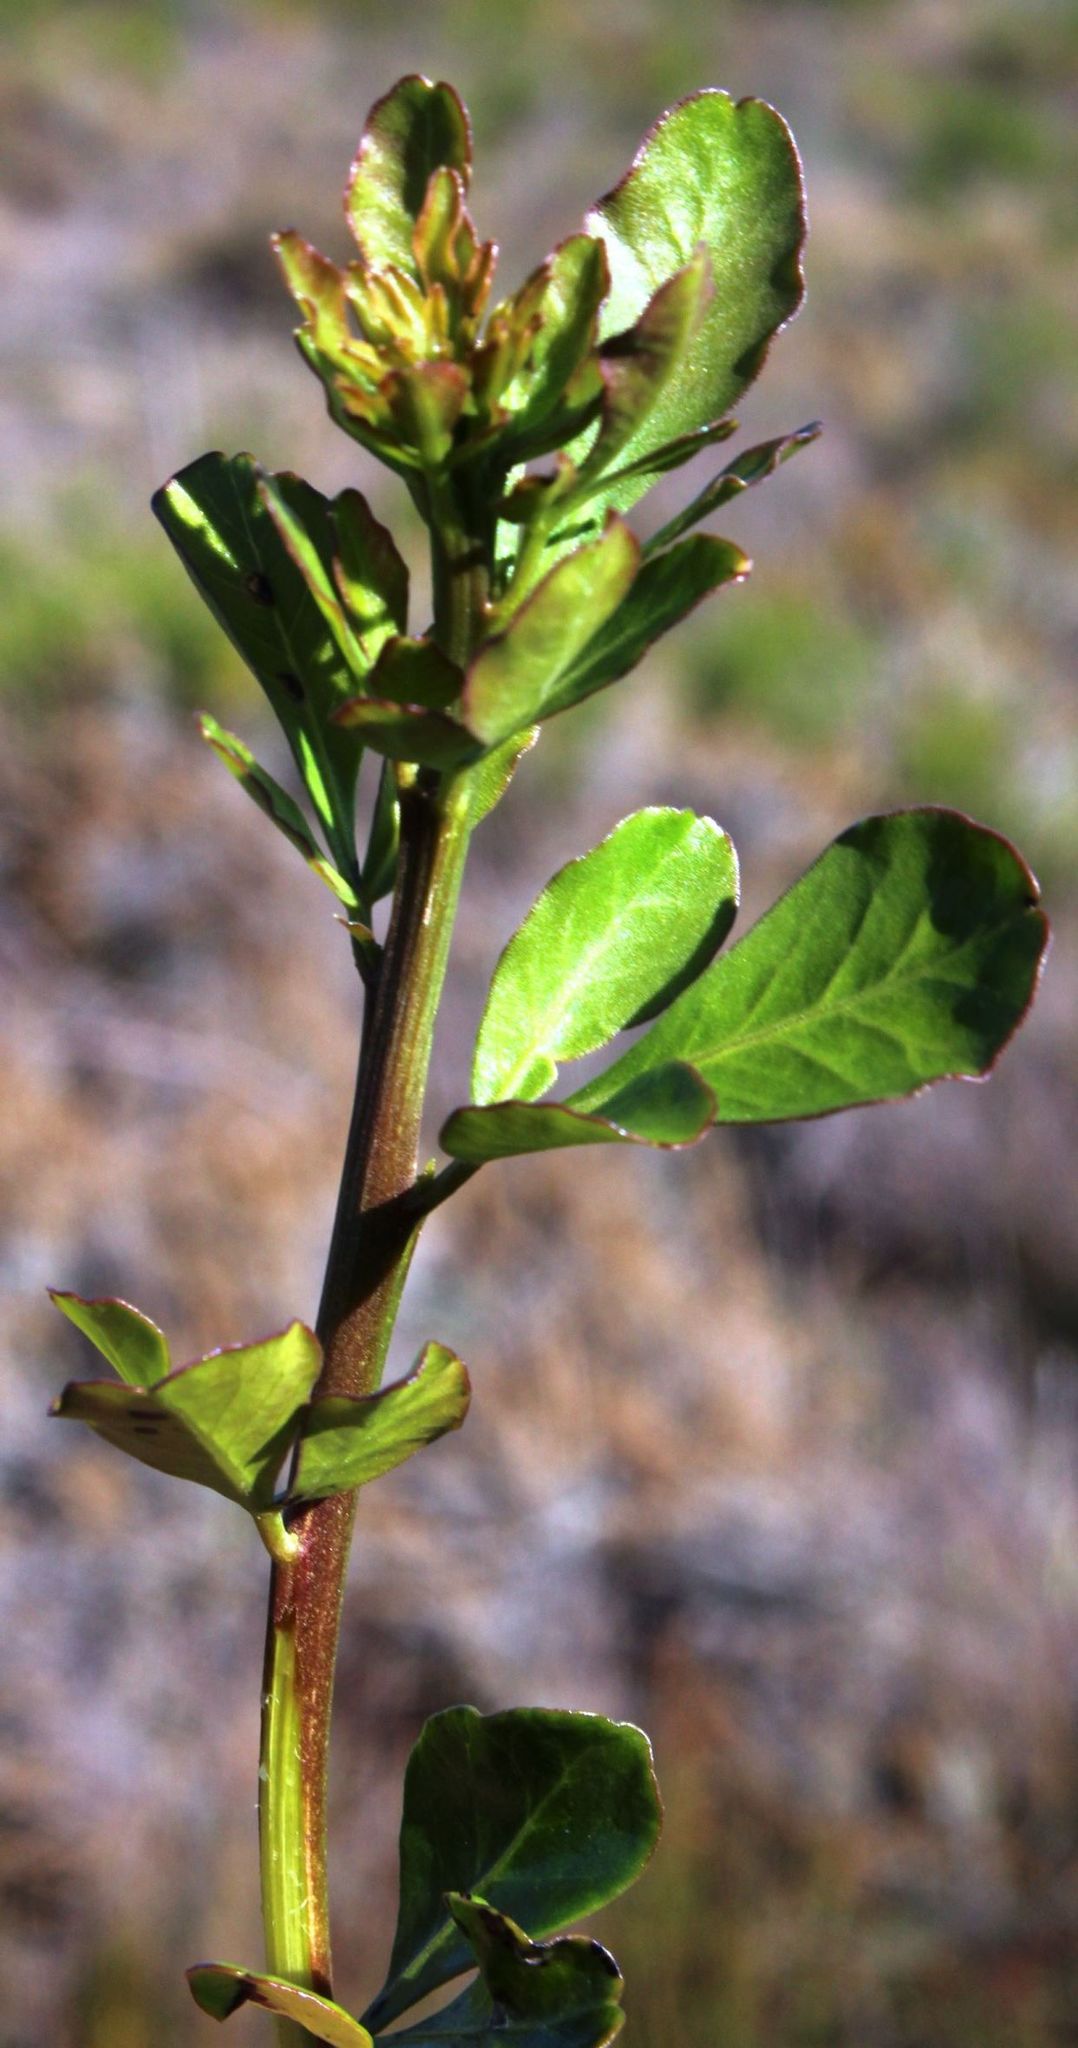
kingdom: Plantae
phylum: Tracheophyta
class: Magnoliopsida
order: Sapindales
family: Anacardiaceae
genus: Searsia
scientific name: Searsia lucida
